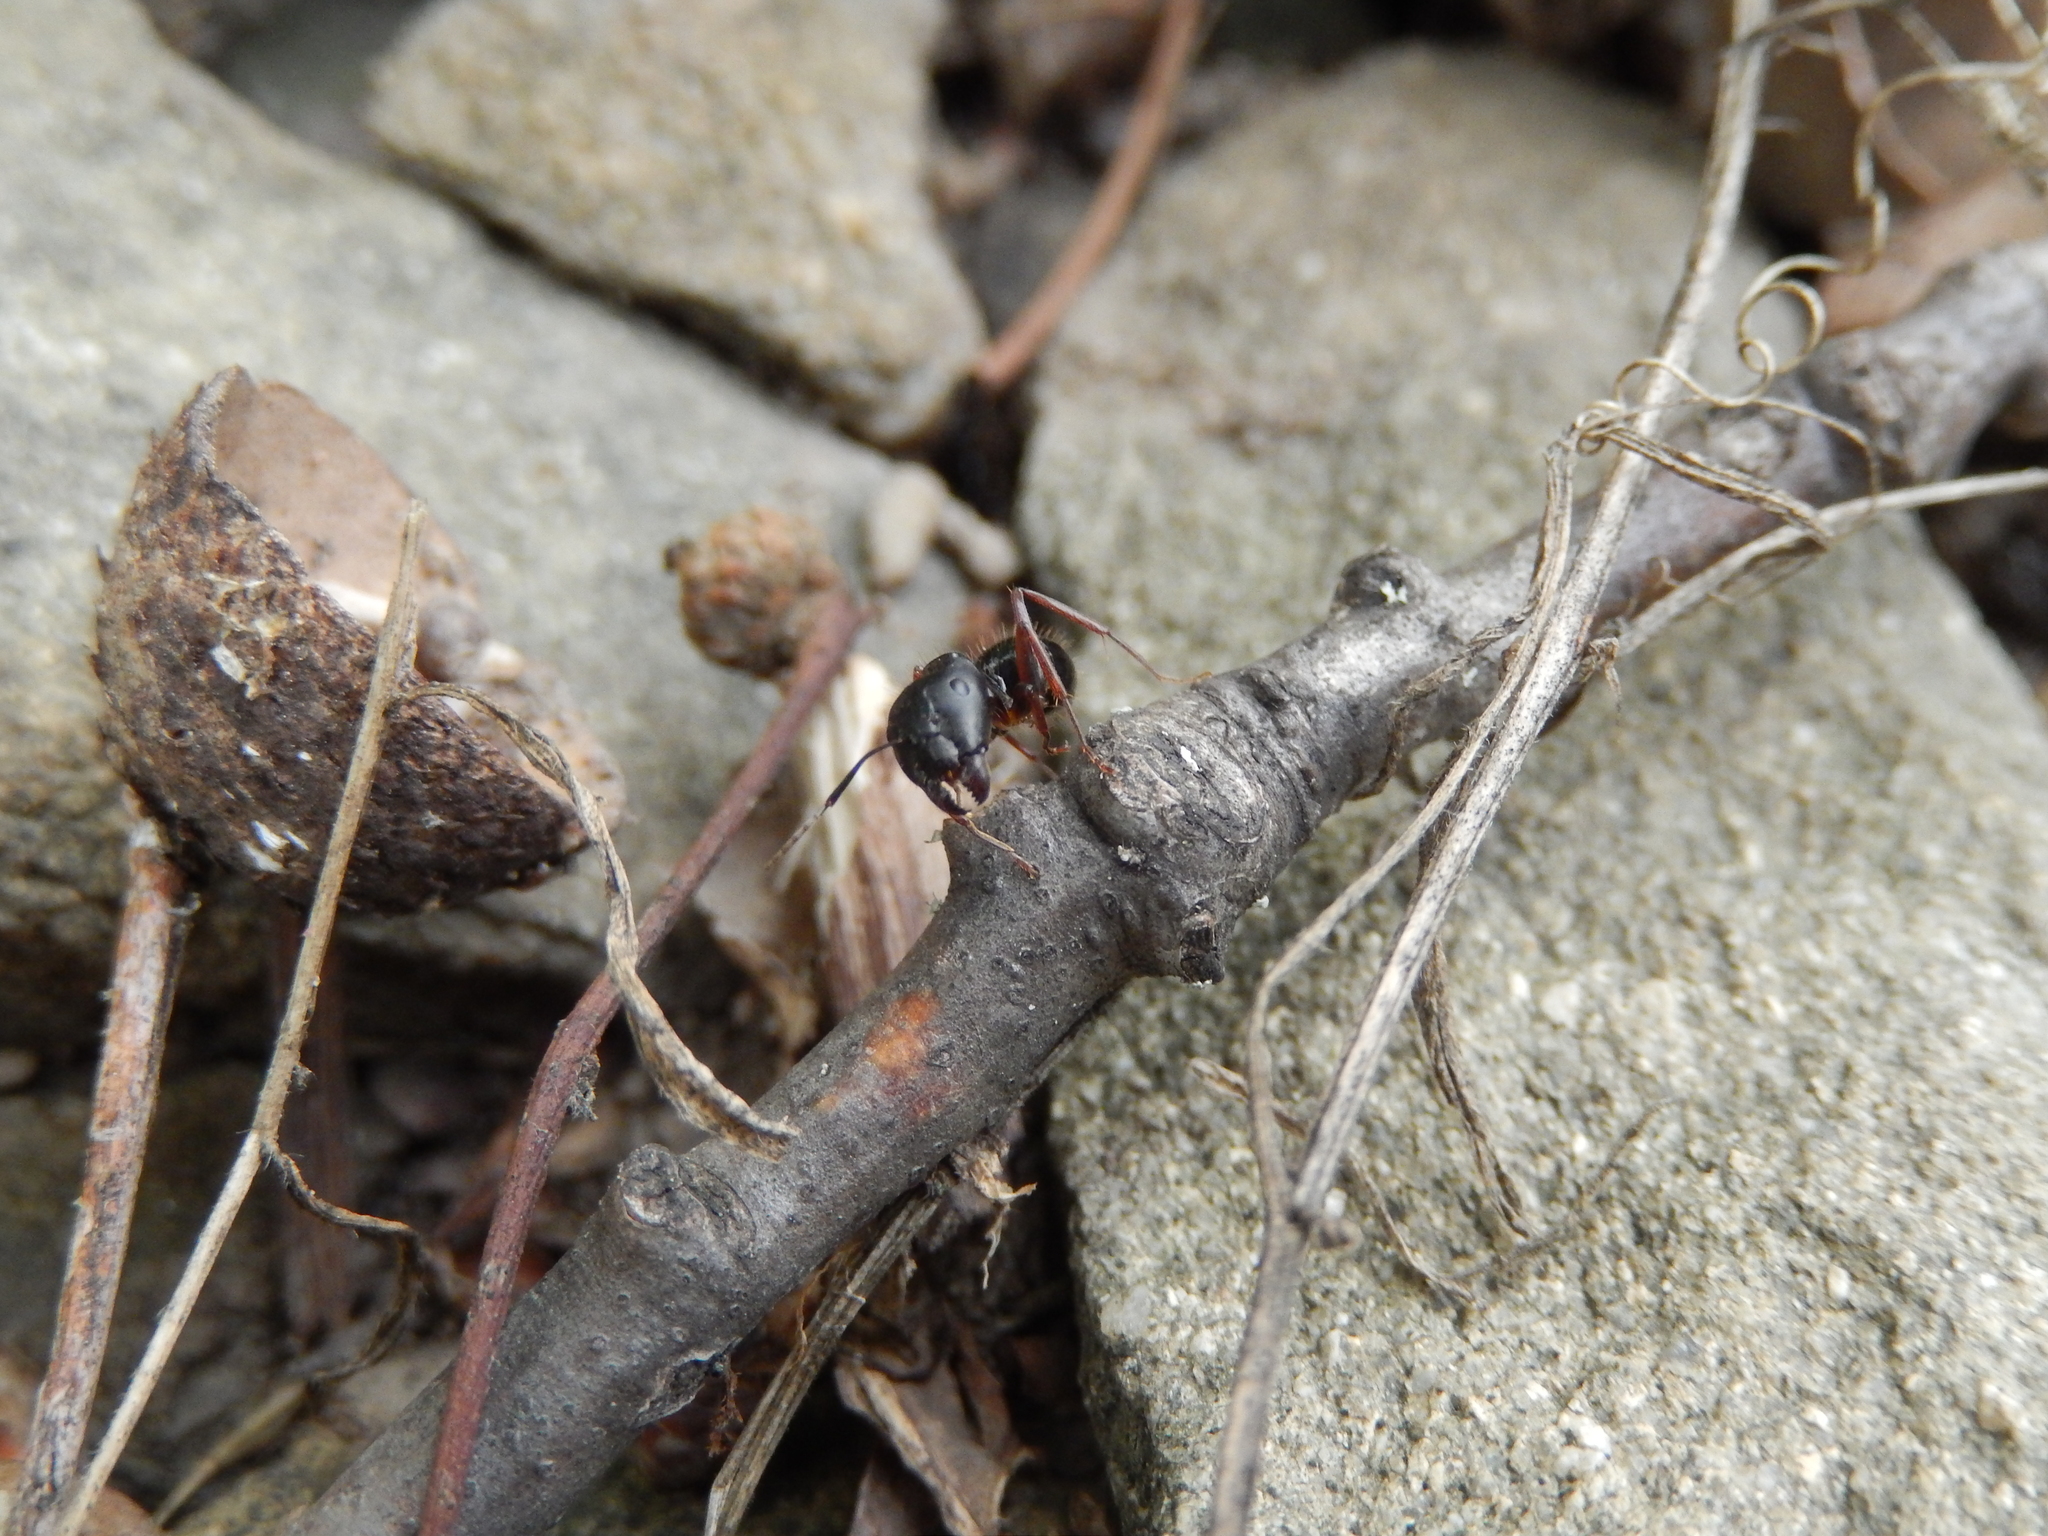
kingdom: Animalia
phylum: Arthropoda
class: Insecta
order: Hymenoptera
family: Formicidae
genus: Camponotus
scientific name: Camponotus aethiops
